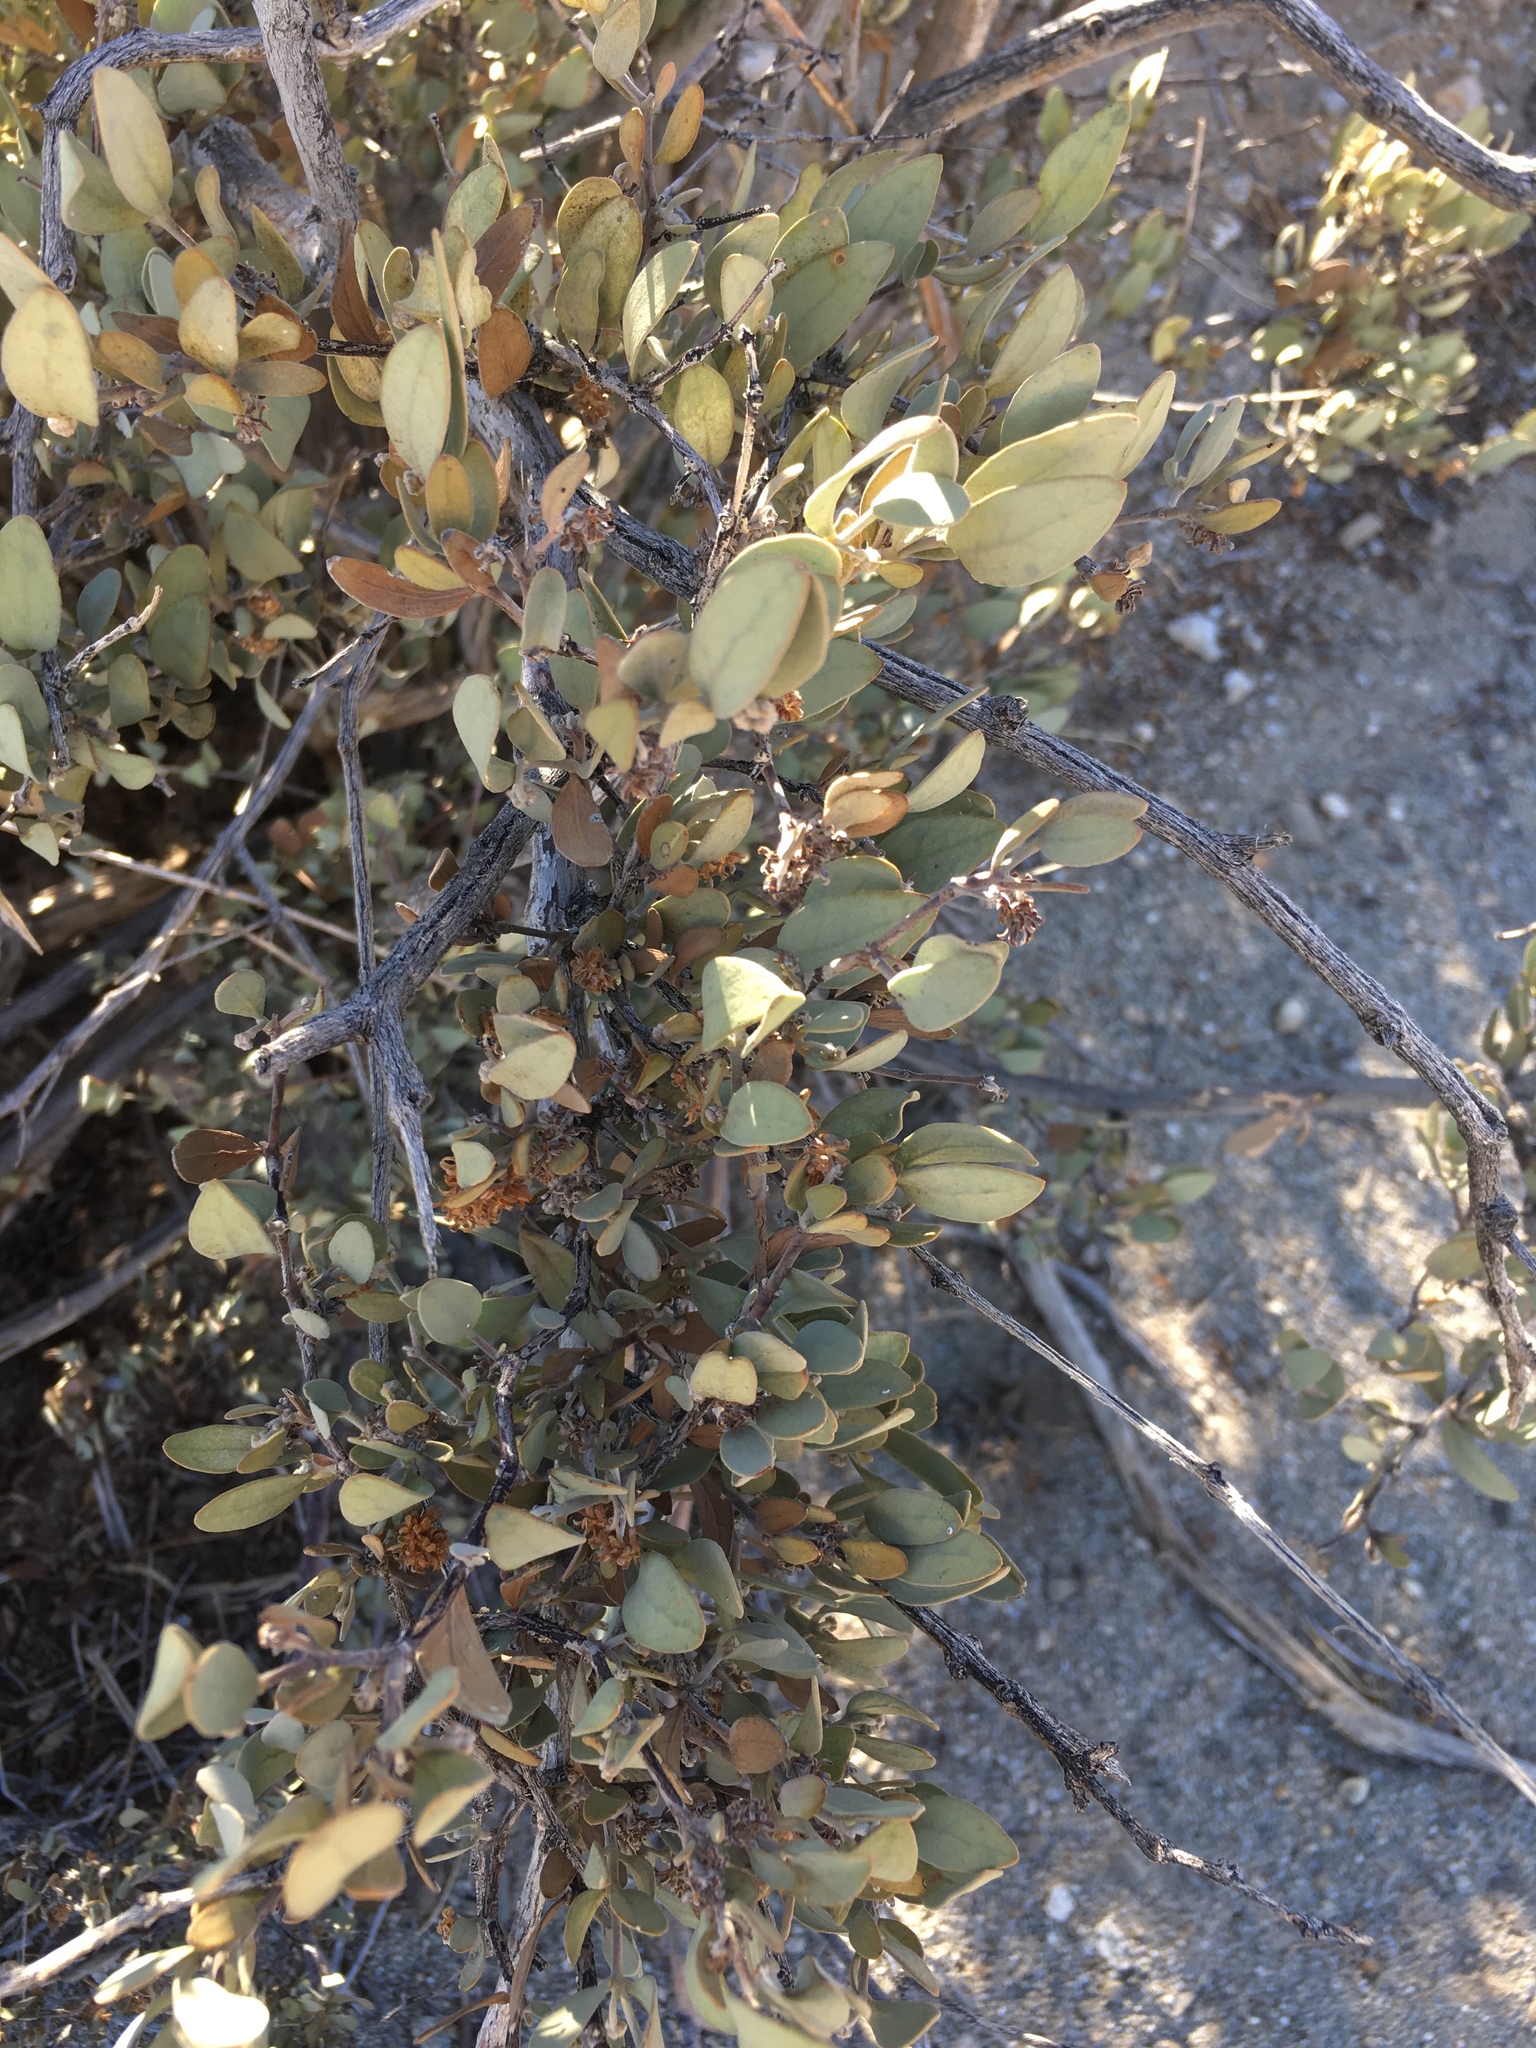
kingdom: Plantae
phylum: Tracheophyta
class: Magnoliopsida
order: Caryophyllales
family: Simmondsiaceae
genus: Simmondsia
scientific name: Simmondsia chinensis
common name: Jojoba
